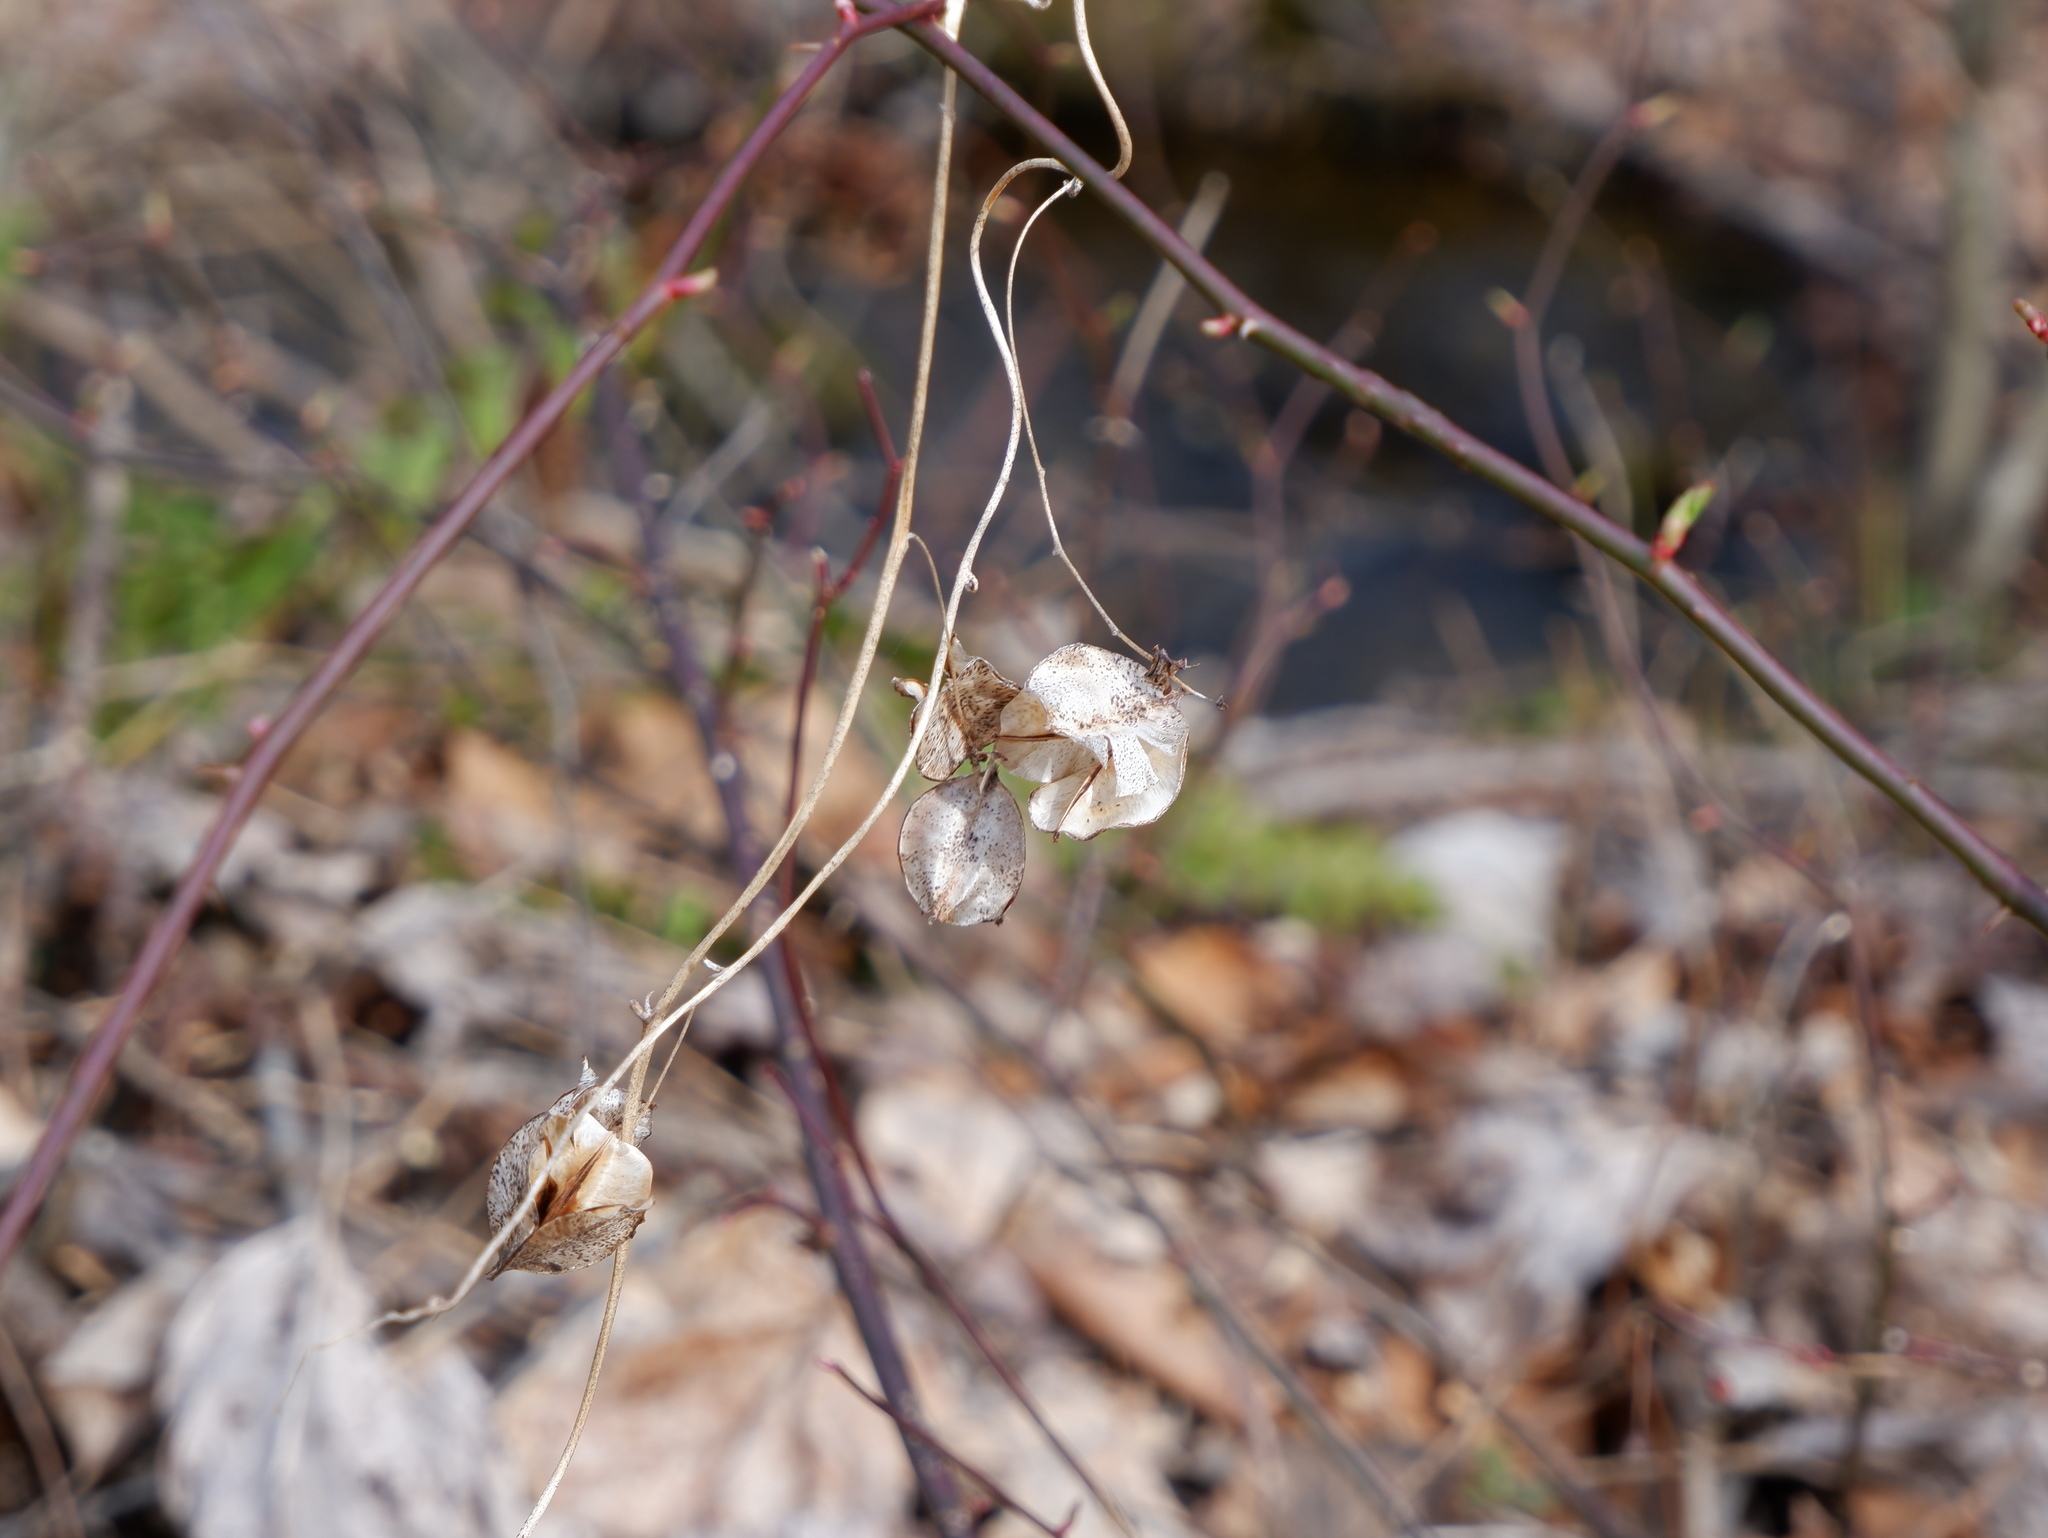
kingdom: Plantae
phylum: Tracheophyta
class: Liliopsida
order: Dioscoreales
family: Dioscoreaceae
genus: Dioscorea
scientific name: Dioscorea villosa
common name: Wild yam
